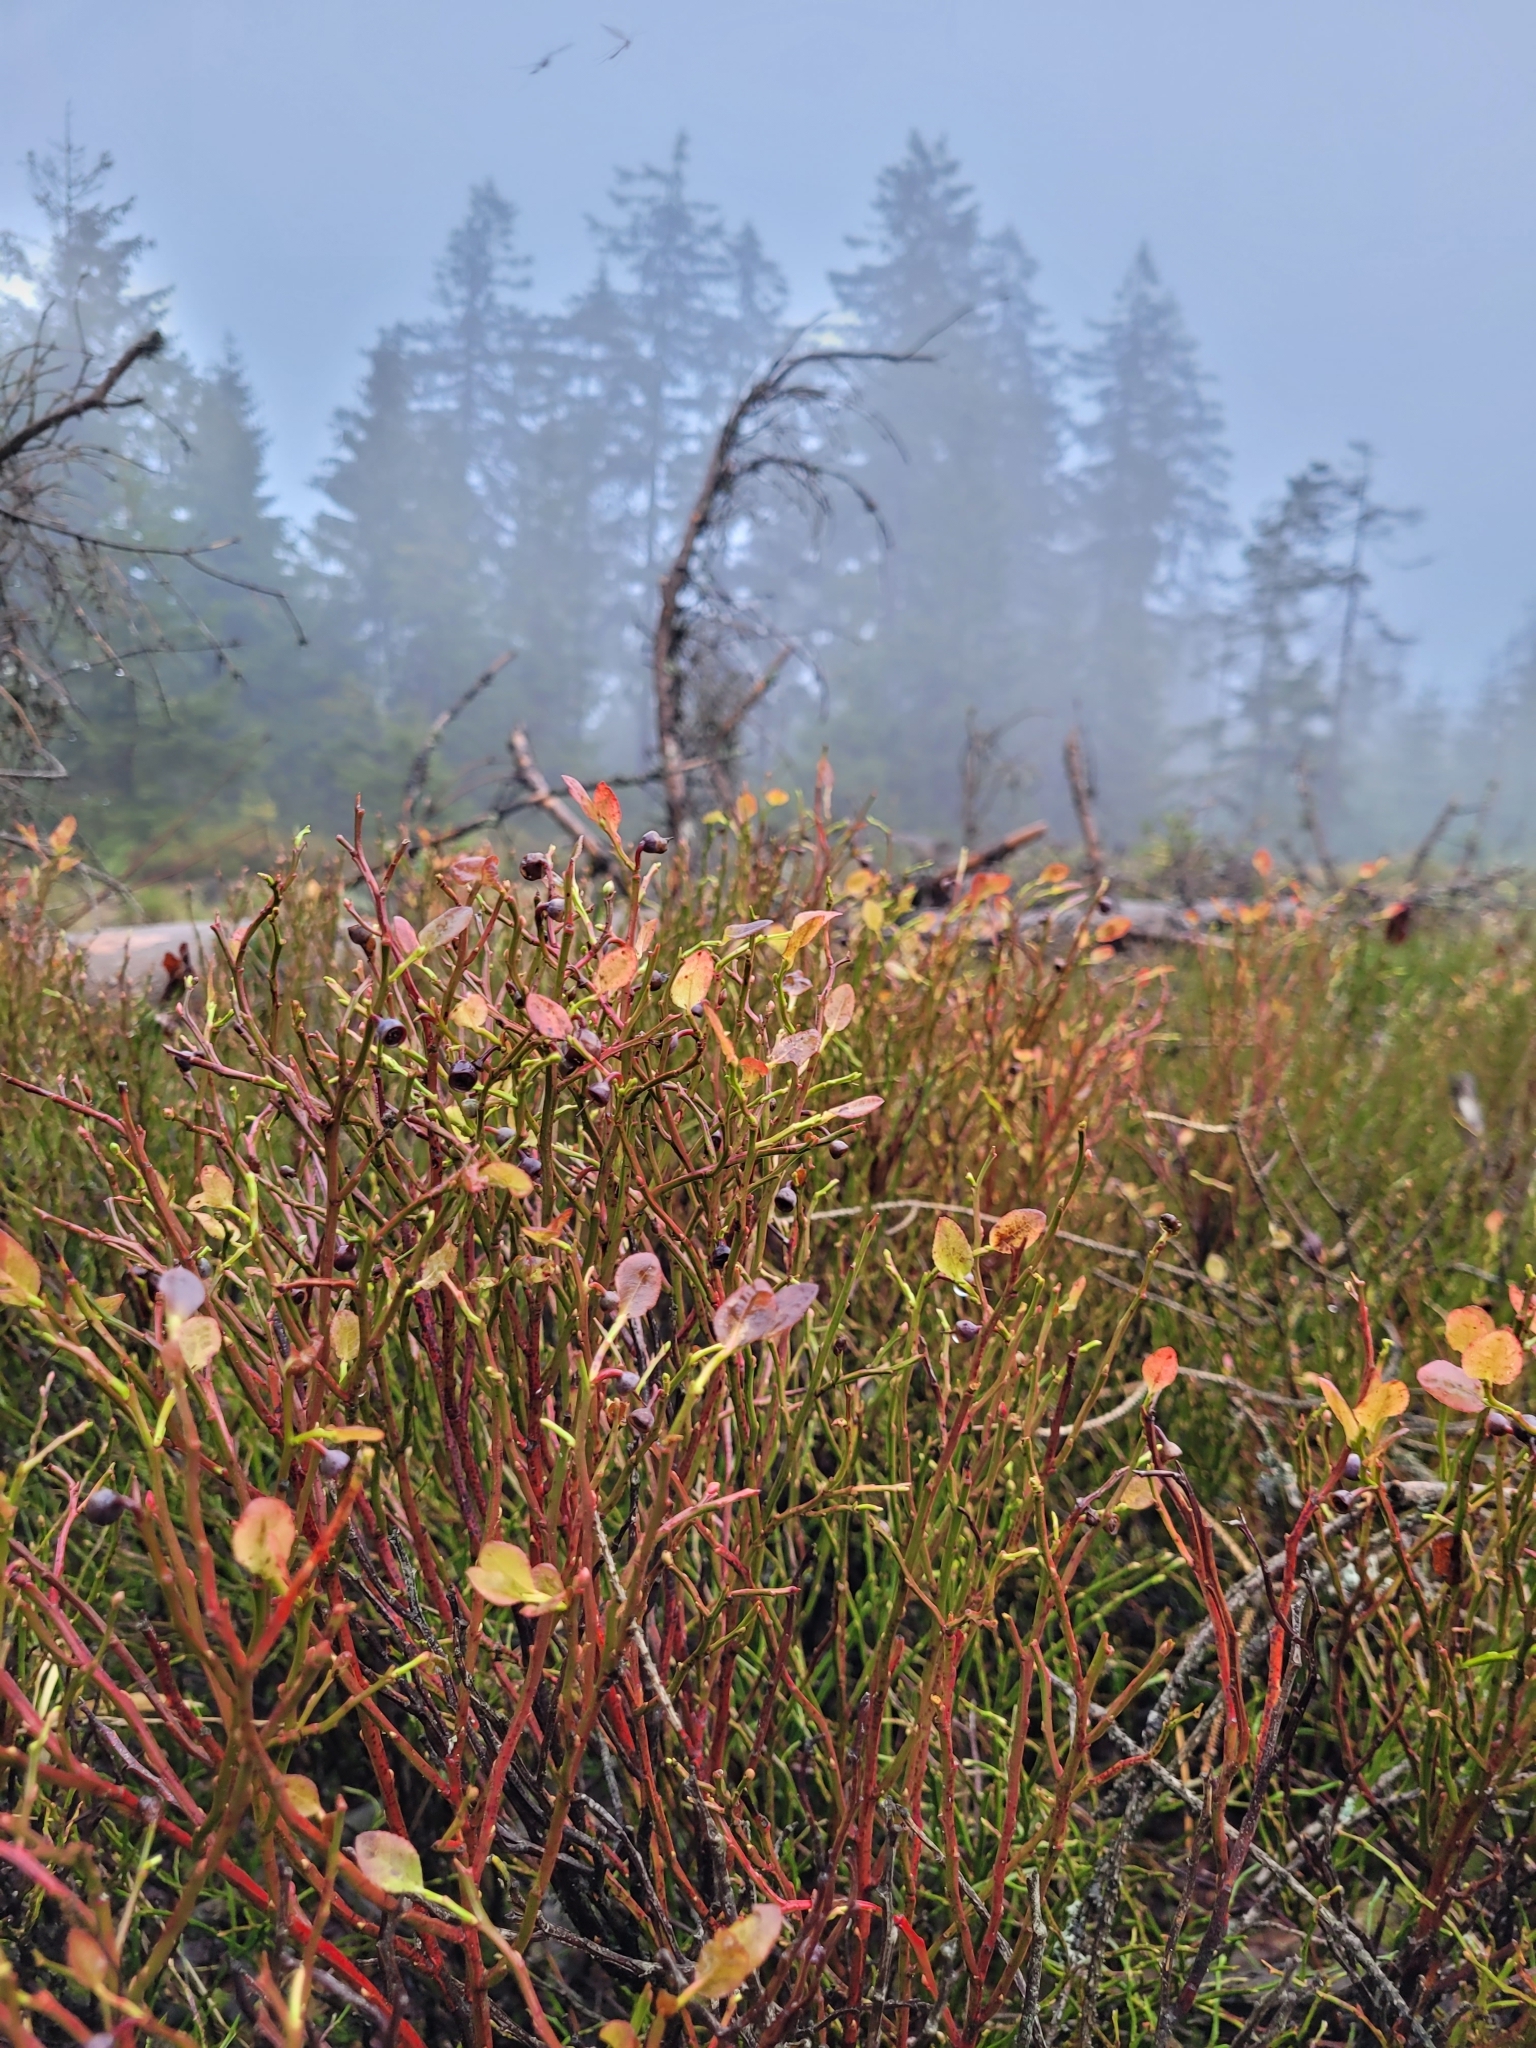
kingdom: Plantae
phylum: Tracheophyta
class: Magnoliopsida
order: Ericales
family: Ericaceae
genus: Vaccinium
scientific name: Vaccinium myrtillus
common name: Bilberry
